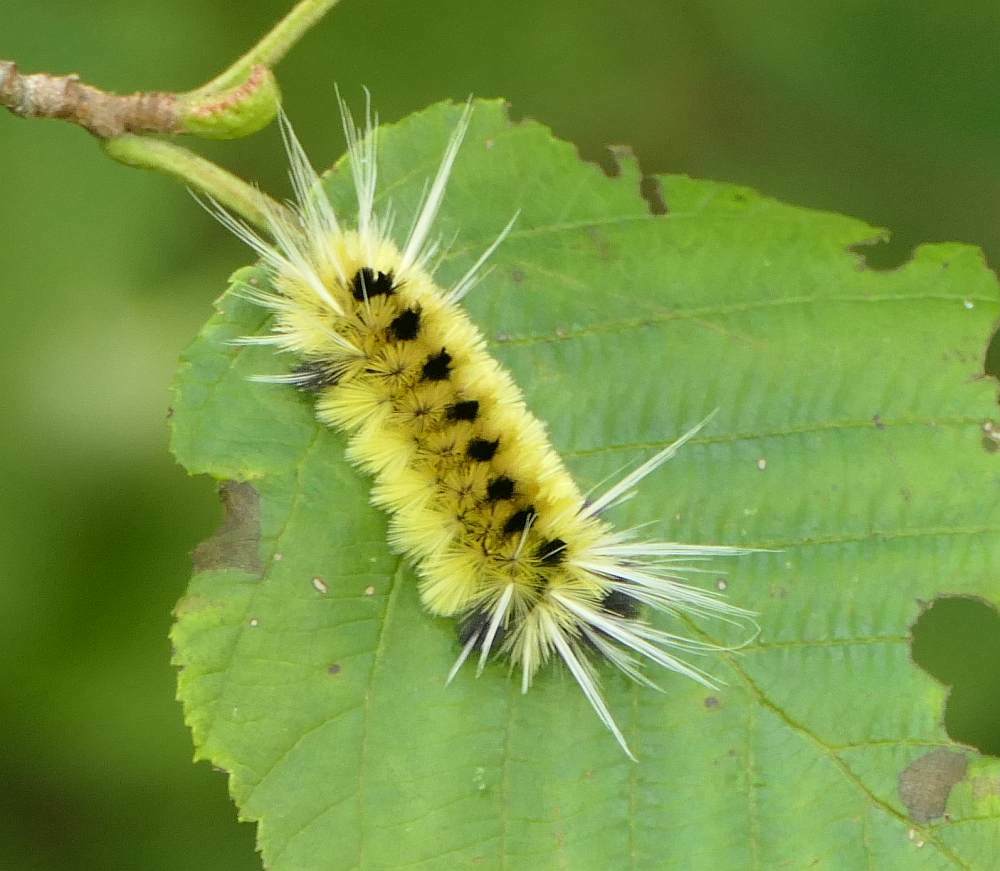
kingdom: Animalia
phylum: Arthropoda
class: Insecta
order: Lepidoptera
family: Erebidae
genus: Lophocampa
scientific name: Lophocampa maculata
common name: Spotted tussock moth
